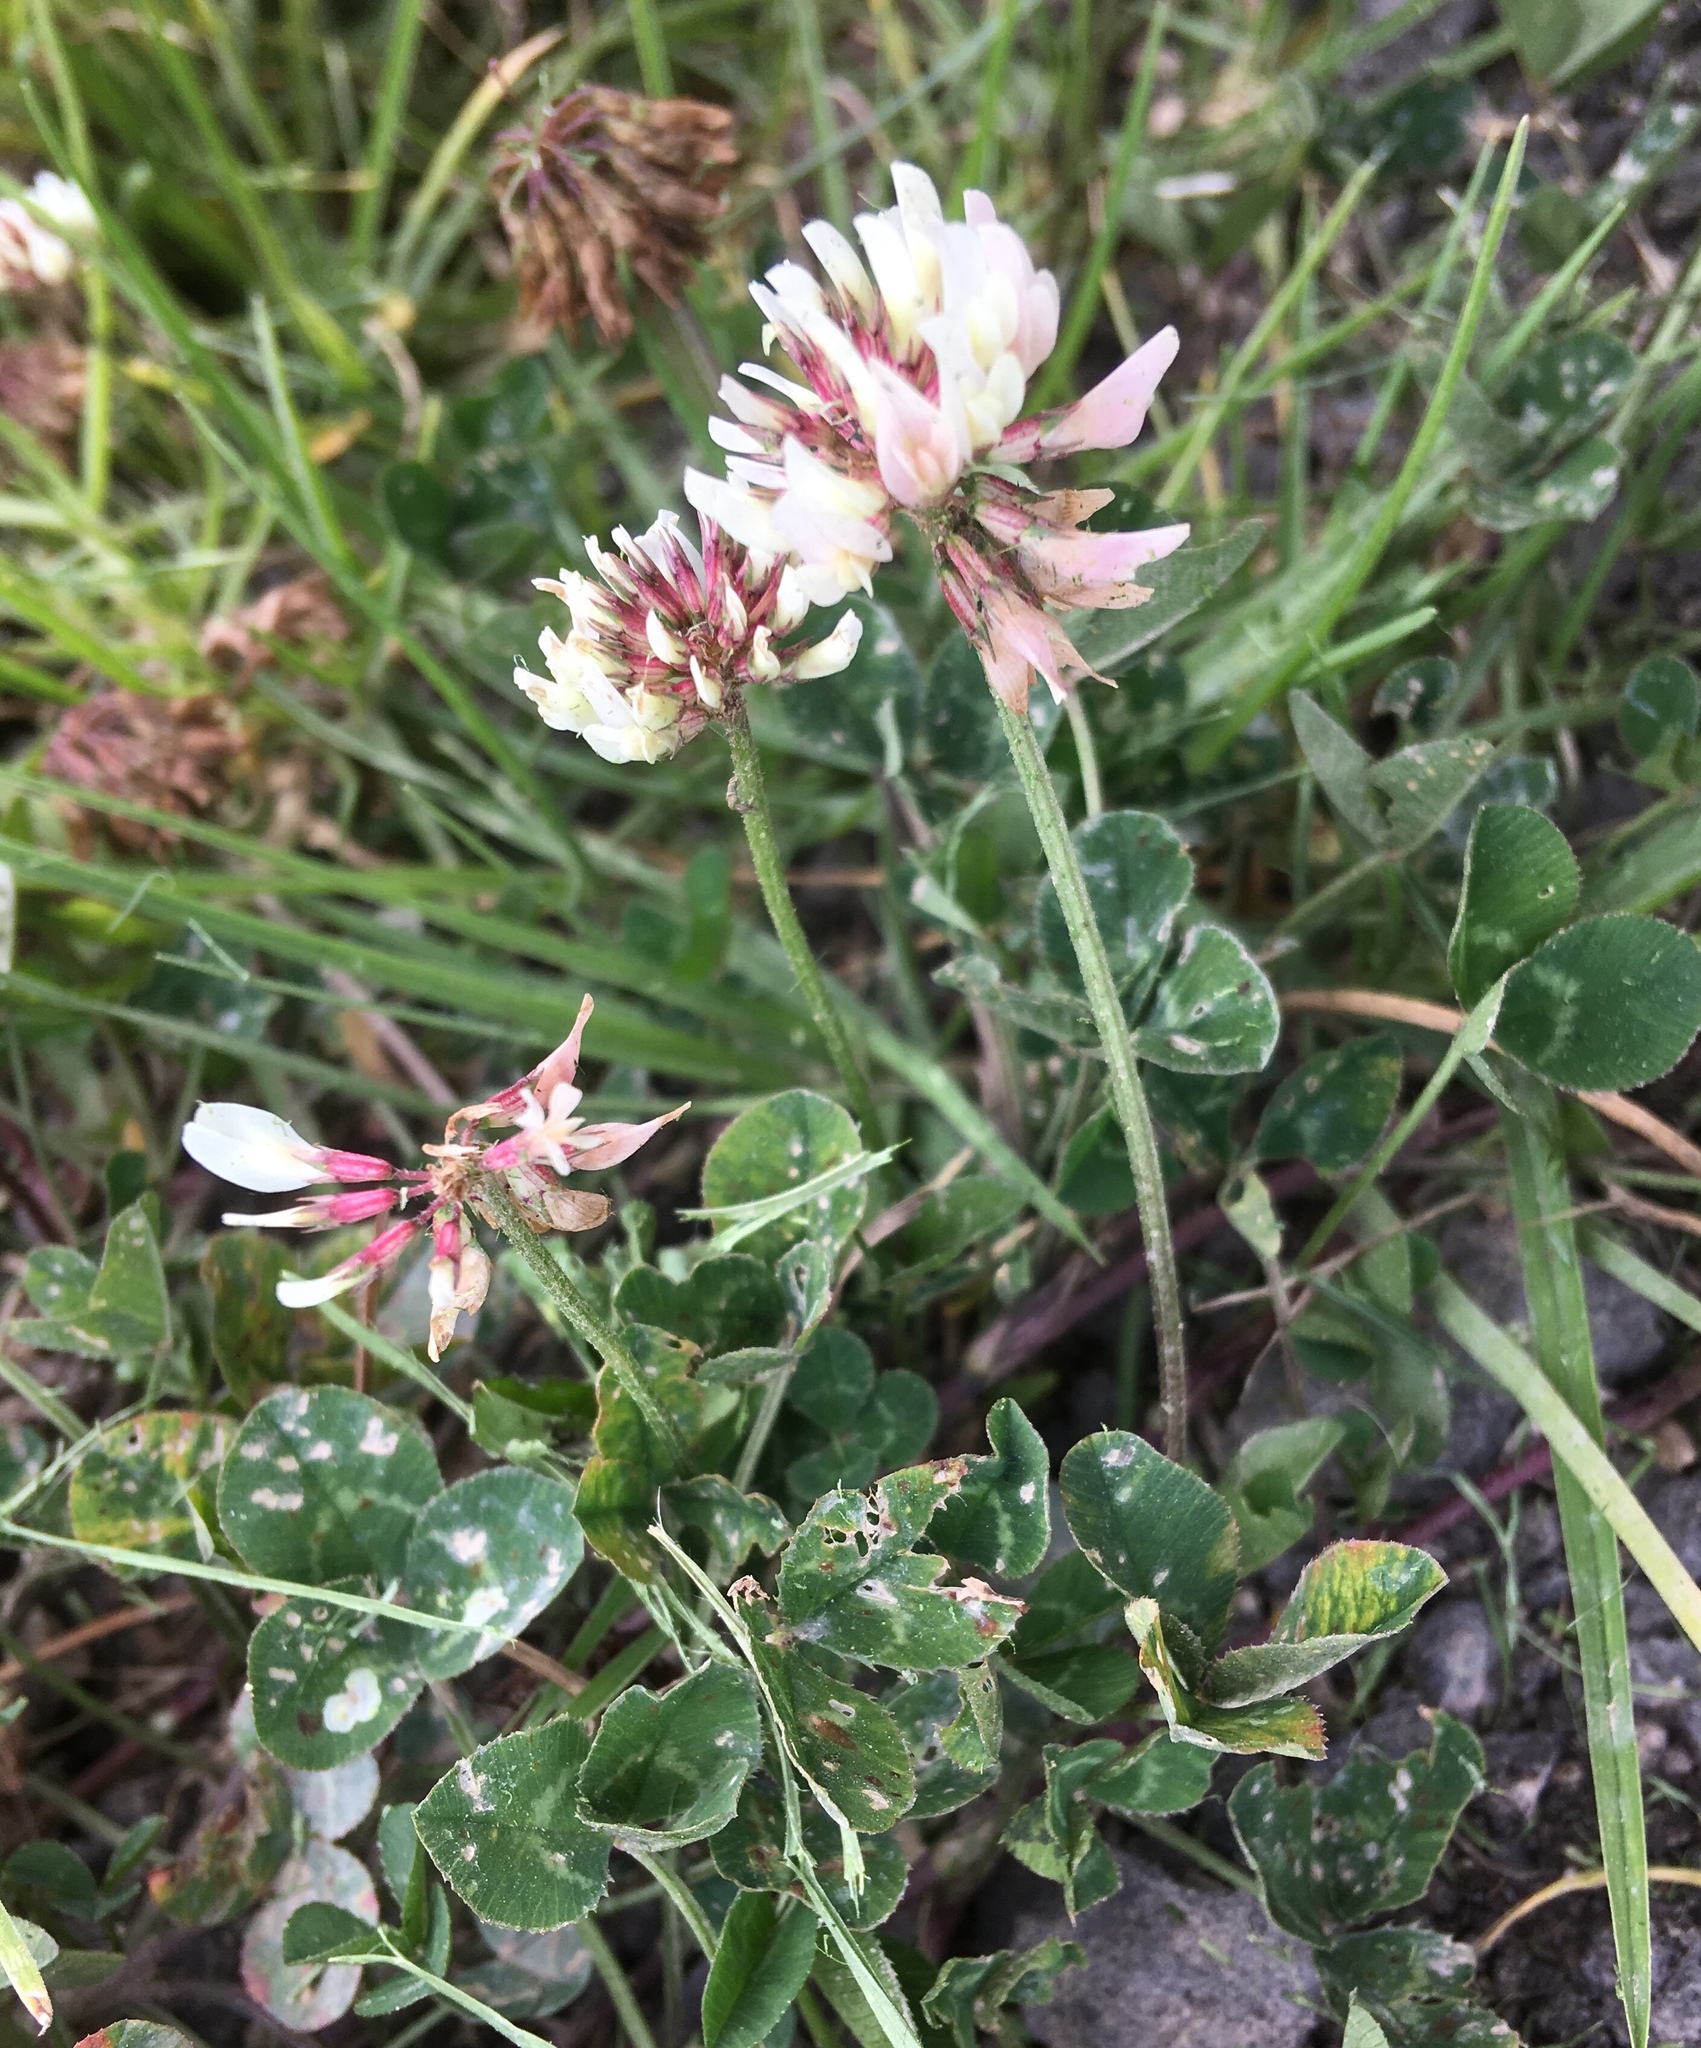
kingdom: Plantae
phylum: Tracheophyta
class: Magnoliopsida
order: Fabales
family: Fabaceae
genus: Trifolium
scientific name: Trifolium repens
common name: White clover
